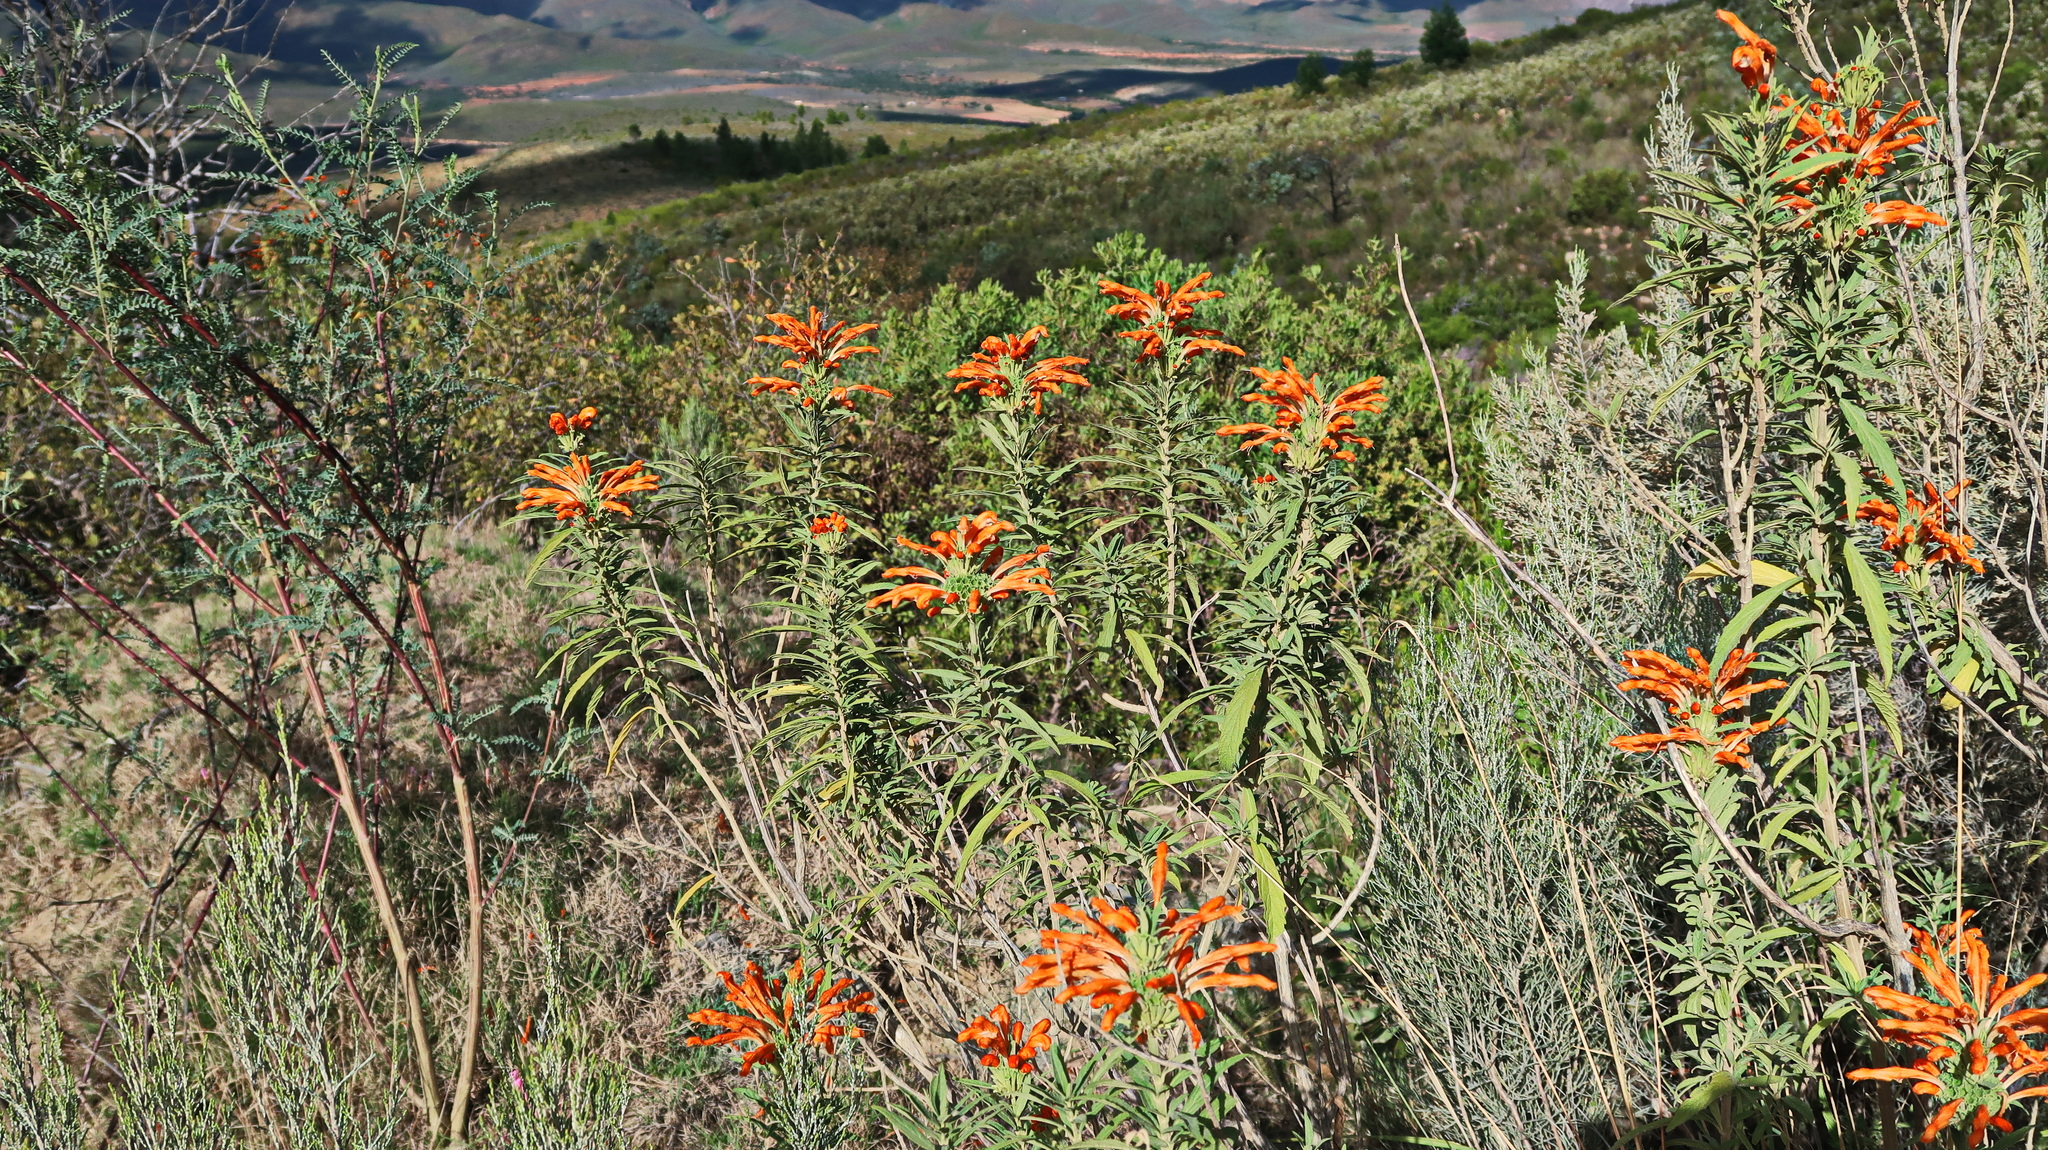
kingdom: Plantae
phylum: Tracheophyta
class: Magnoliopsida
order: Lamiales
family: Lamiaceae
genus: Leonotis
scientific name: Leonotis leonurus
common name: Lion's ear
